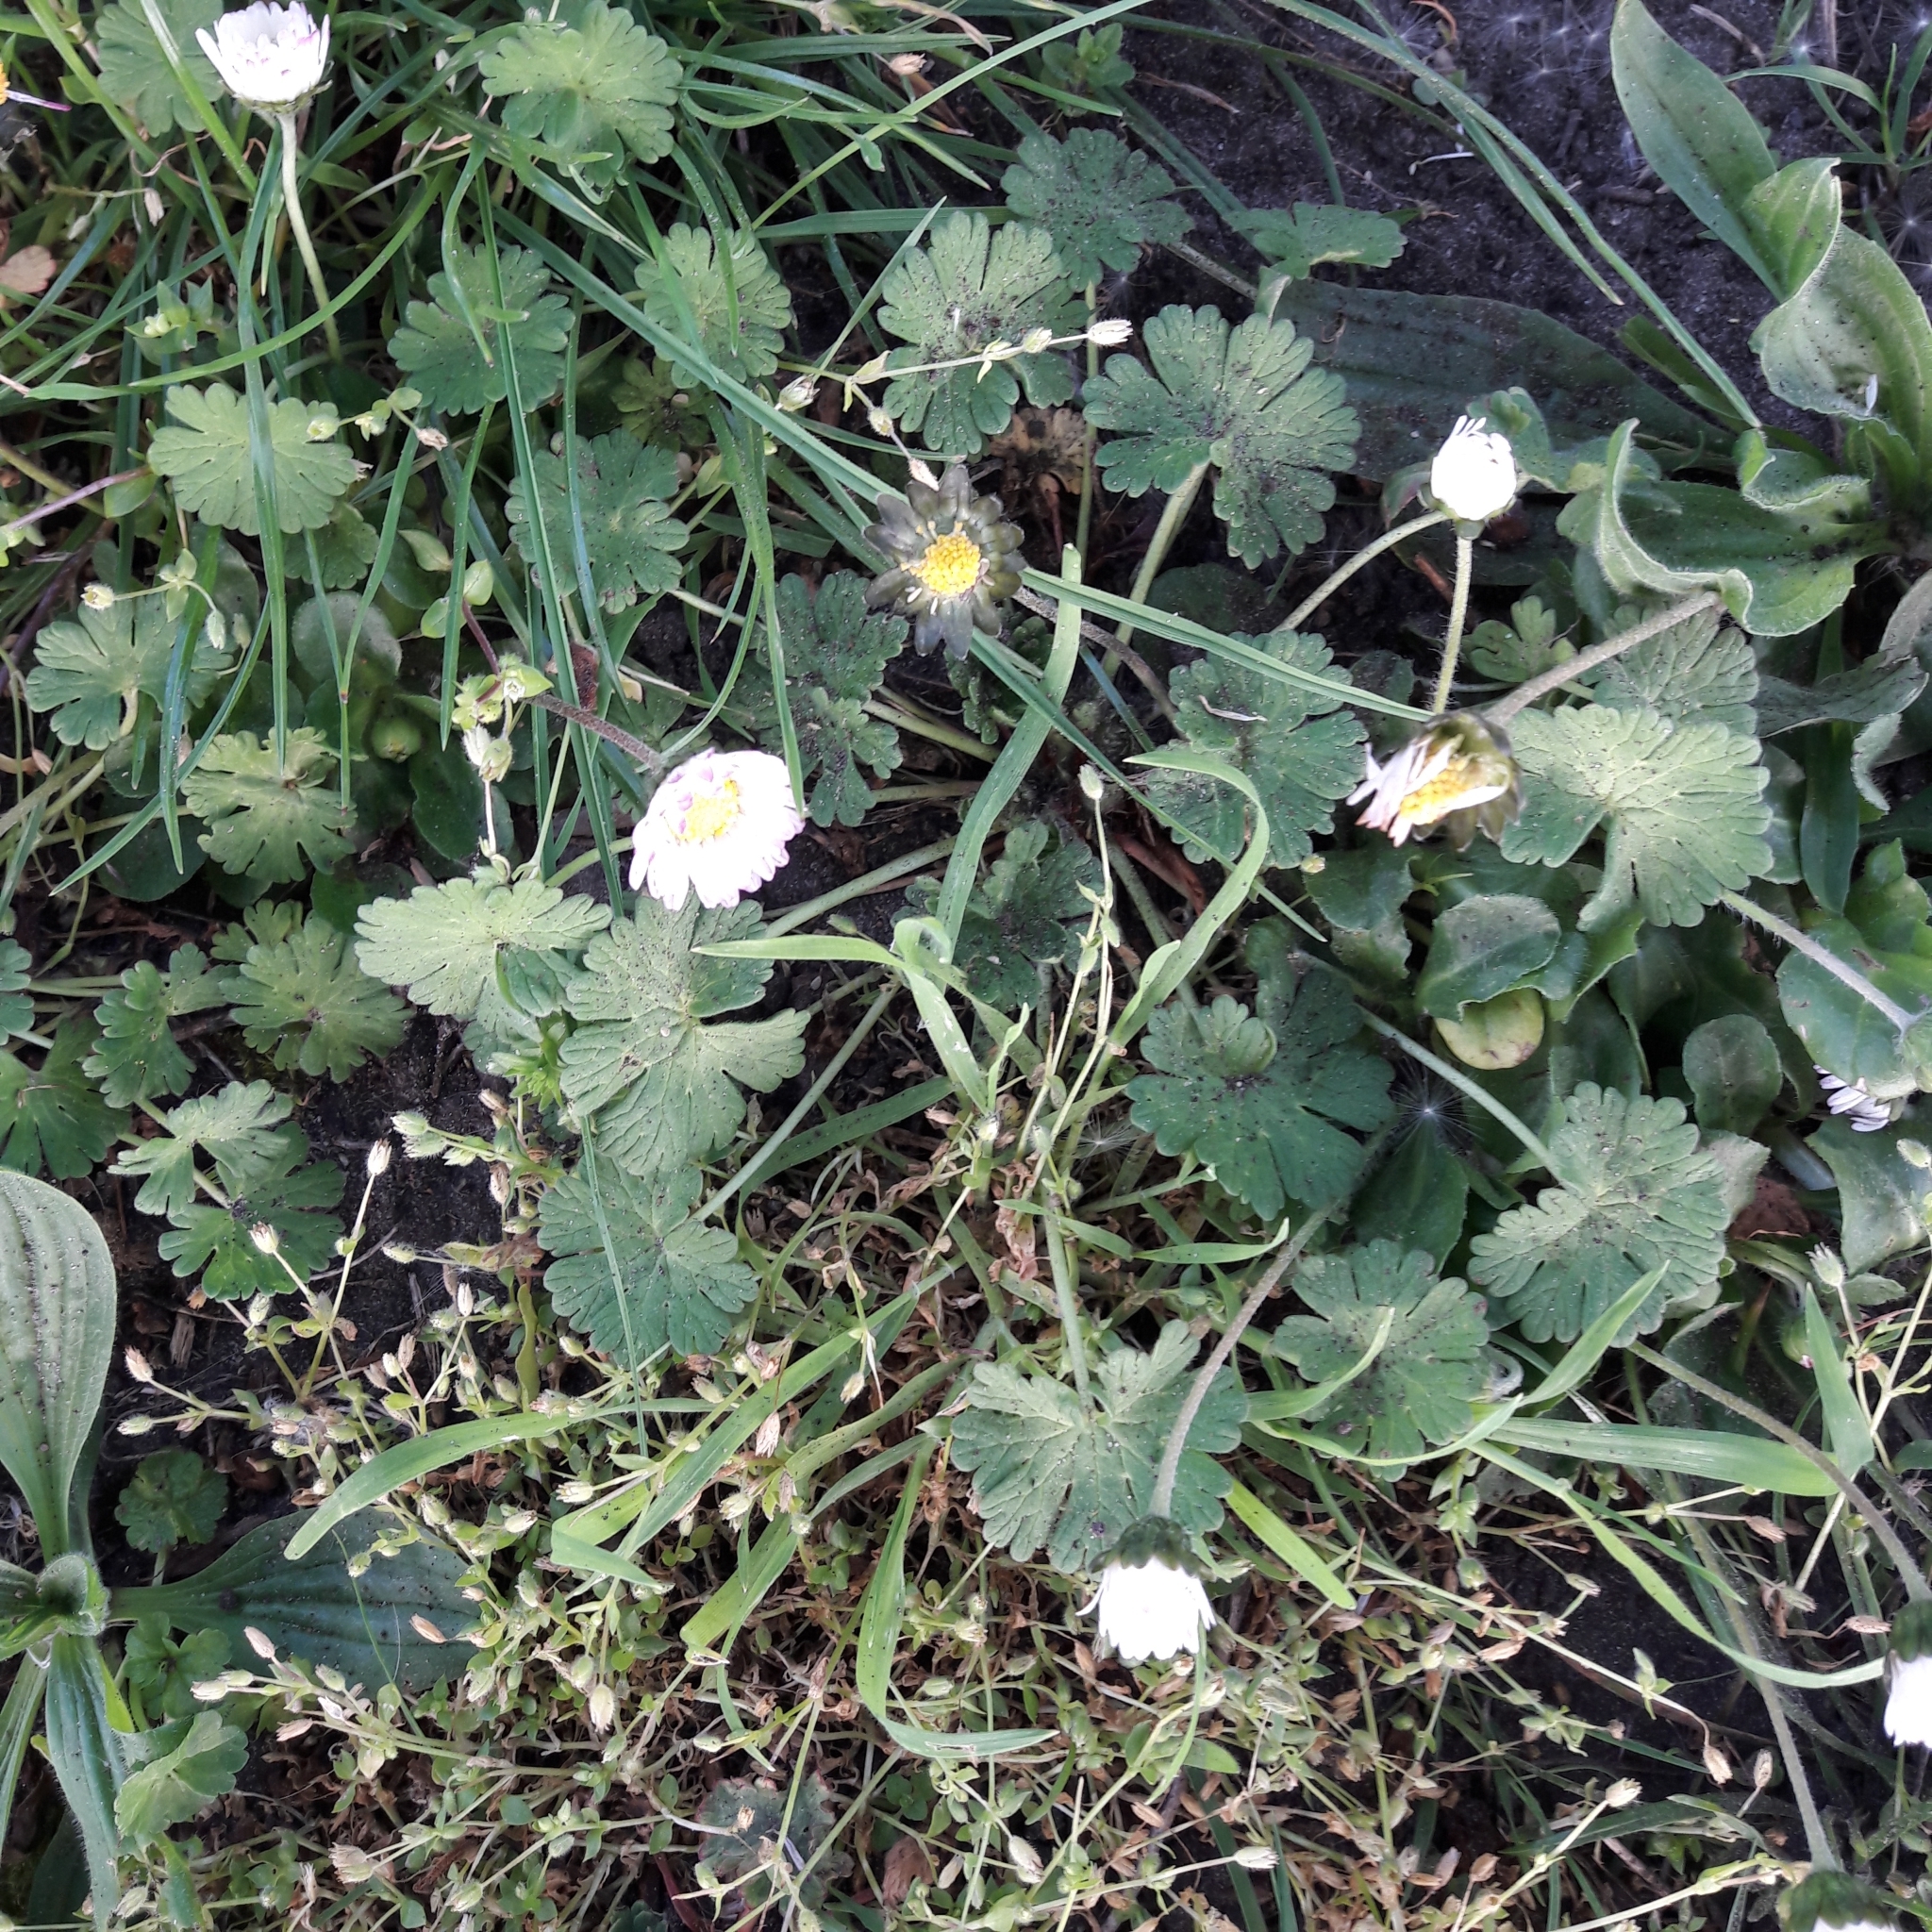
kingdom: Plantae
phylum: Tracheophyta
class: Magnoliopsida
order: Asterales
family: Asteraceae
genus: Bellis
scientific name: Bellis perennis
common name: Lawndaisy
